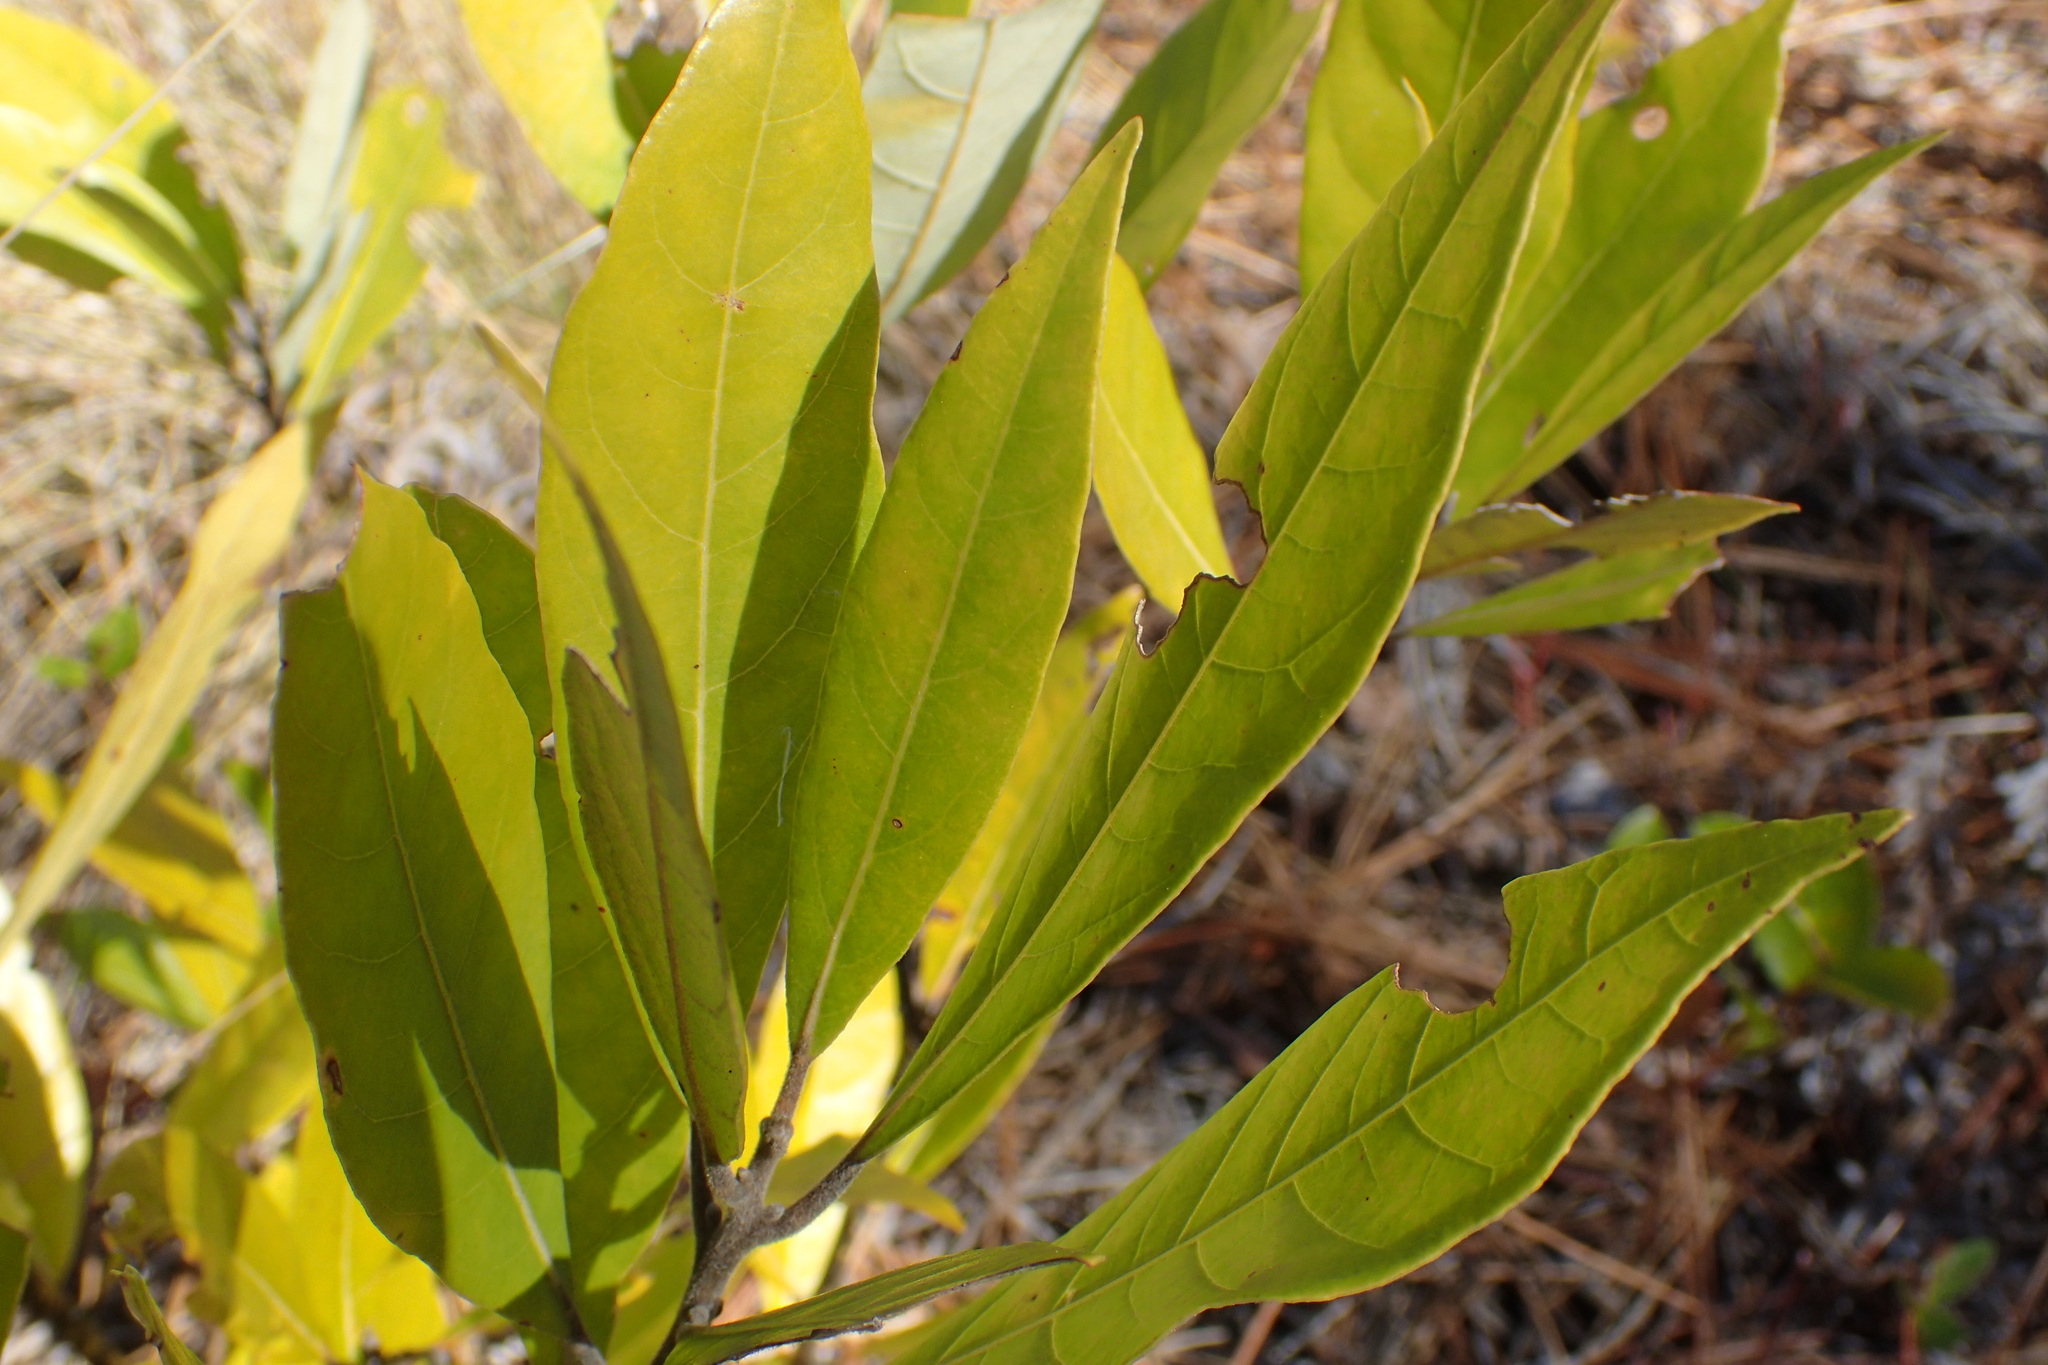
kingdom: Plantae
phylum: Tracheophyta
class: Magnoliopsida
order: Laurales
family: Lauraceae
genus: Persea
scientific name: Persea palustris
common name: Swampbay
